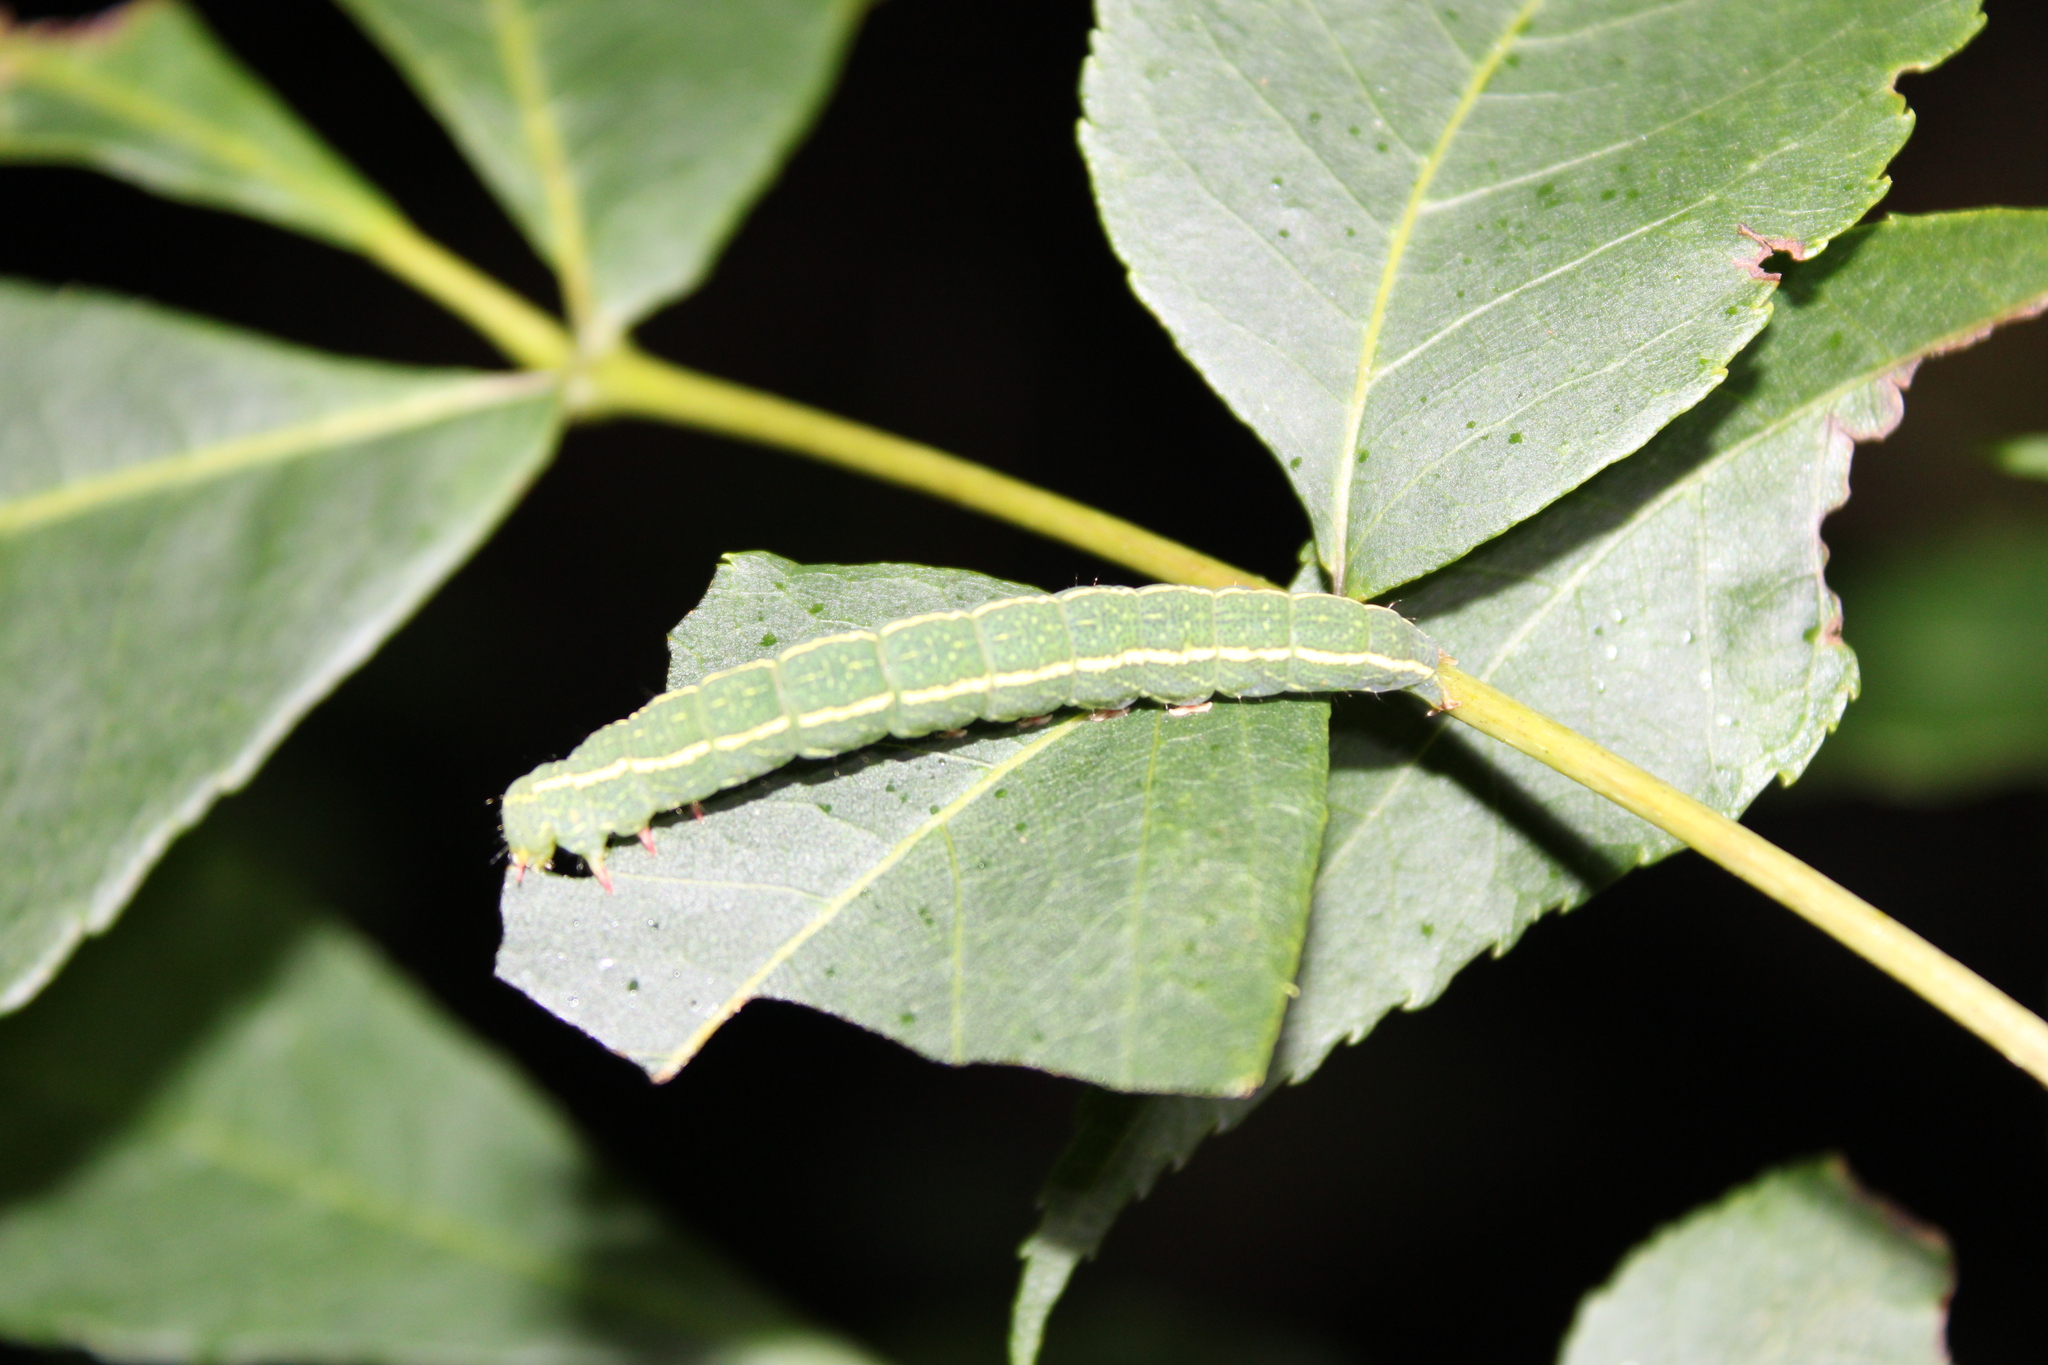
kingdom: Animalia
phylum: Arthropoda
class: Insecta
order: Lepidoptera
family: Erebidae
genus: Panopoda
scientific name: Panopoda rufimargo
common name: Red-lined panopoda moth
